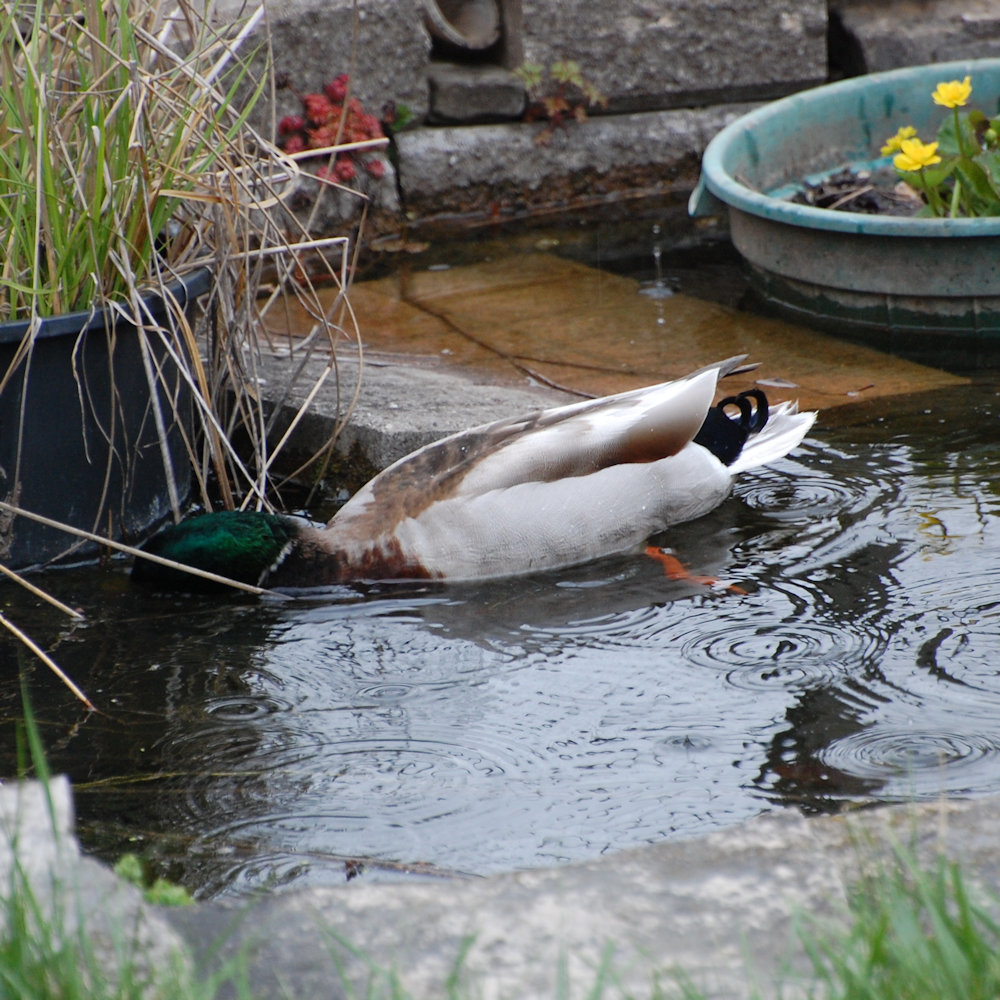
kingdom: Animalia
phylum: Chordata
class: Aves
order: Anseriformes
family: Anatidae
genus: Anas
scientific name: Anas platyrhynchos
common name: Mallard
